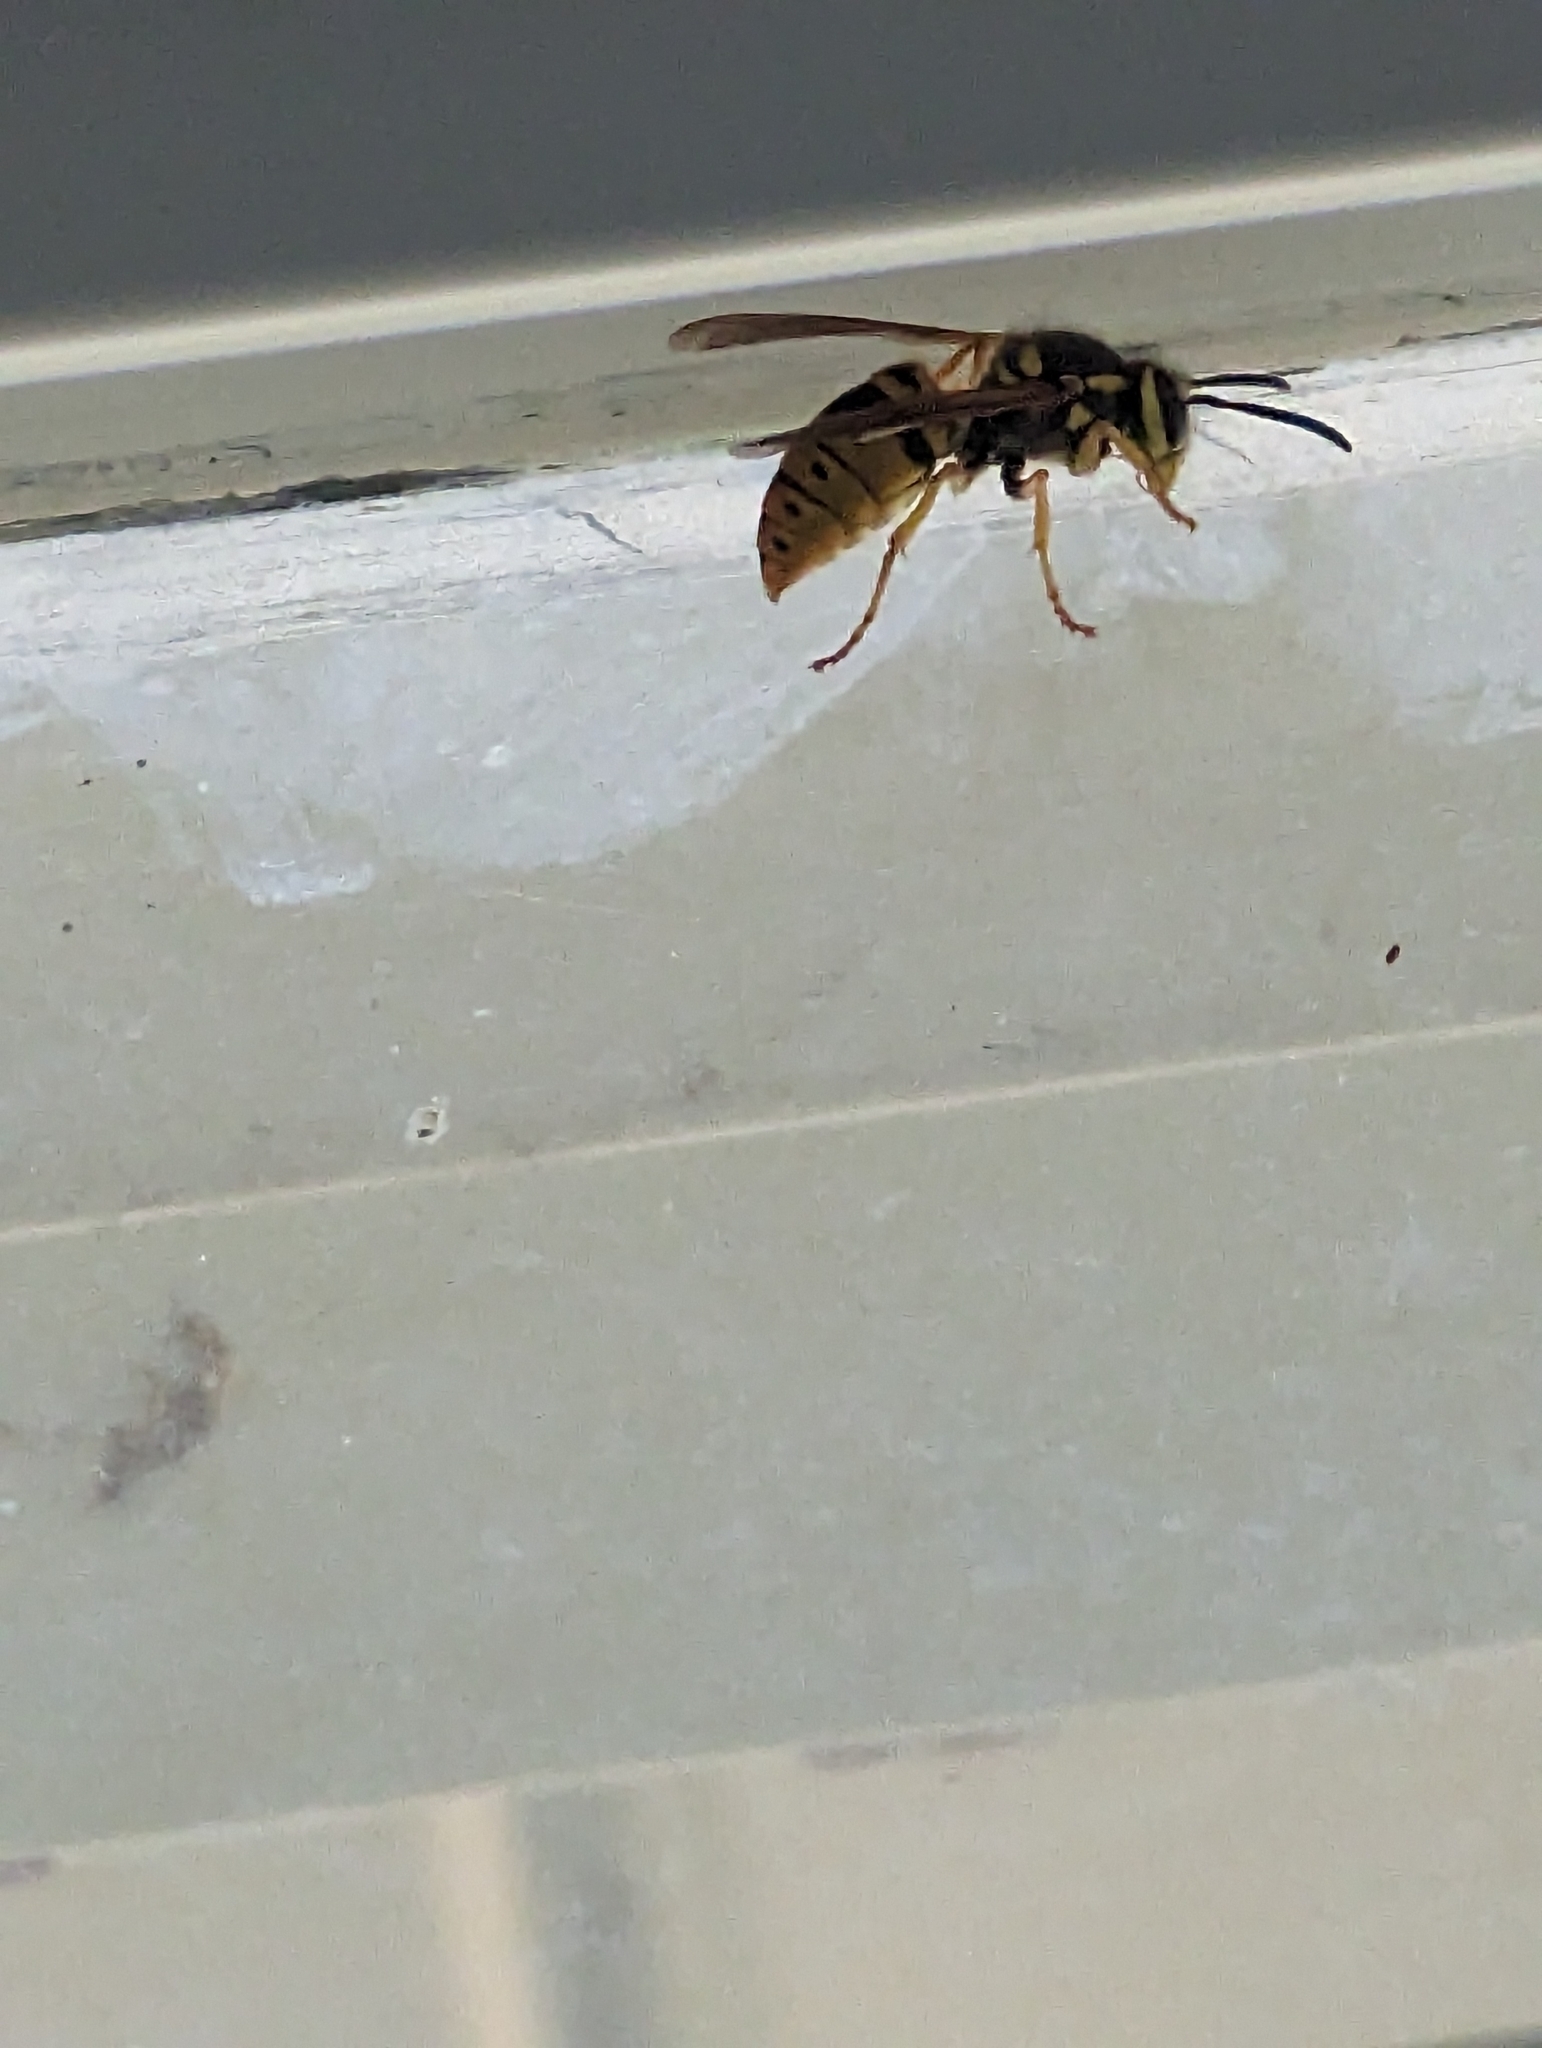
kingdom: Animalia
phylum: Arthropoda
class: Insecta
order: Hymenoptera
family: Vespidae
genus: Vespula
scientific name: Vespula maculifrons
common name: Eastern yellowjacket
